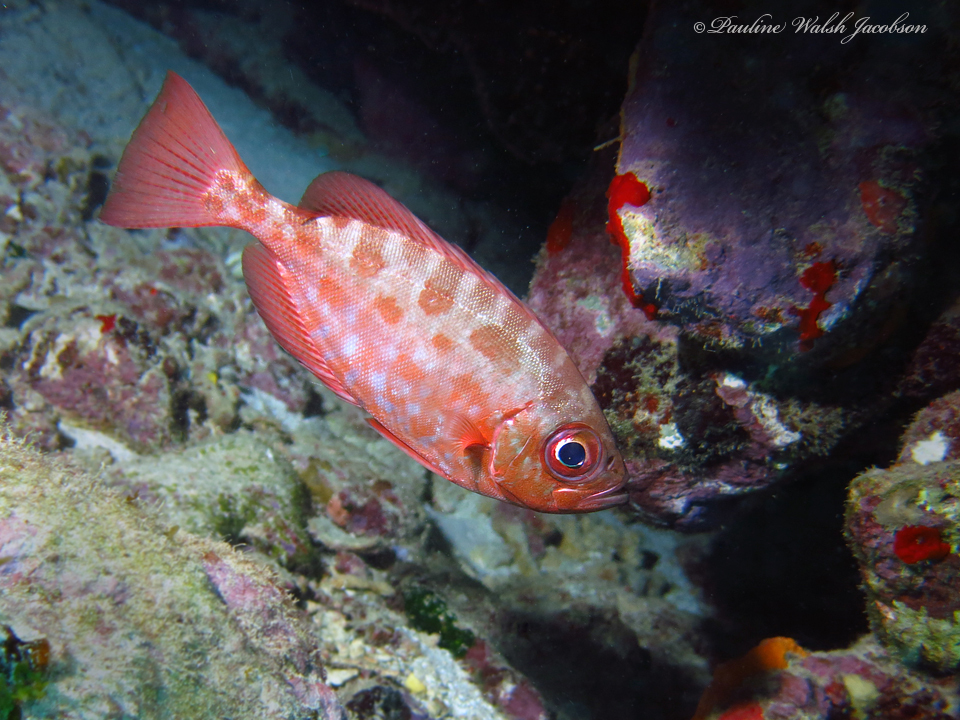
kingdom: Animalia
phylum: Chordata
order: Perciformes
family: Priacanthidae
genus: Heteropriacanthus
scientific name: Heteropriacanthus cruentatus
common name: Glasseye
